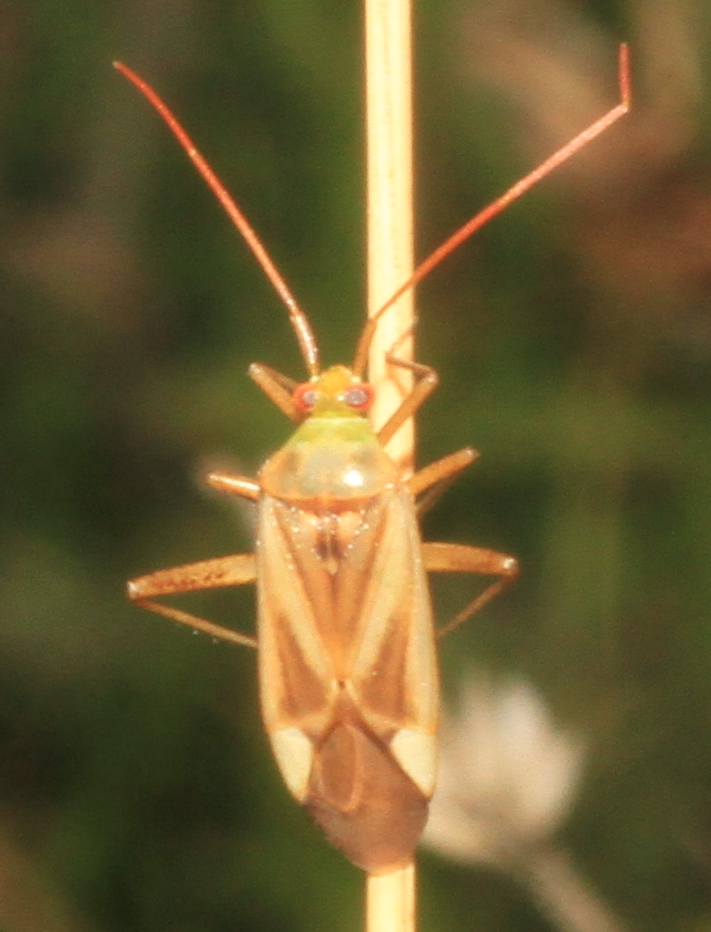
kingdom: Animalia
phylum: Arthropoda
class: Insecta
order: Hemiptera
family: Miridae
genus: Adelphocoris
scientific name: Adelphocoris lineolatus
